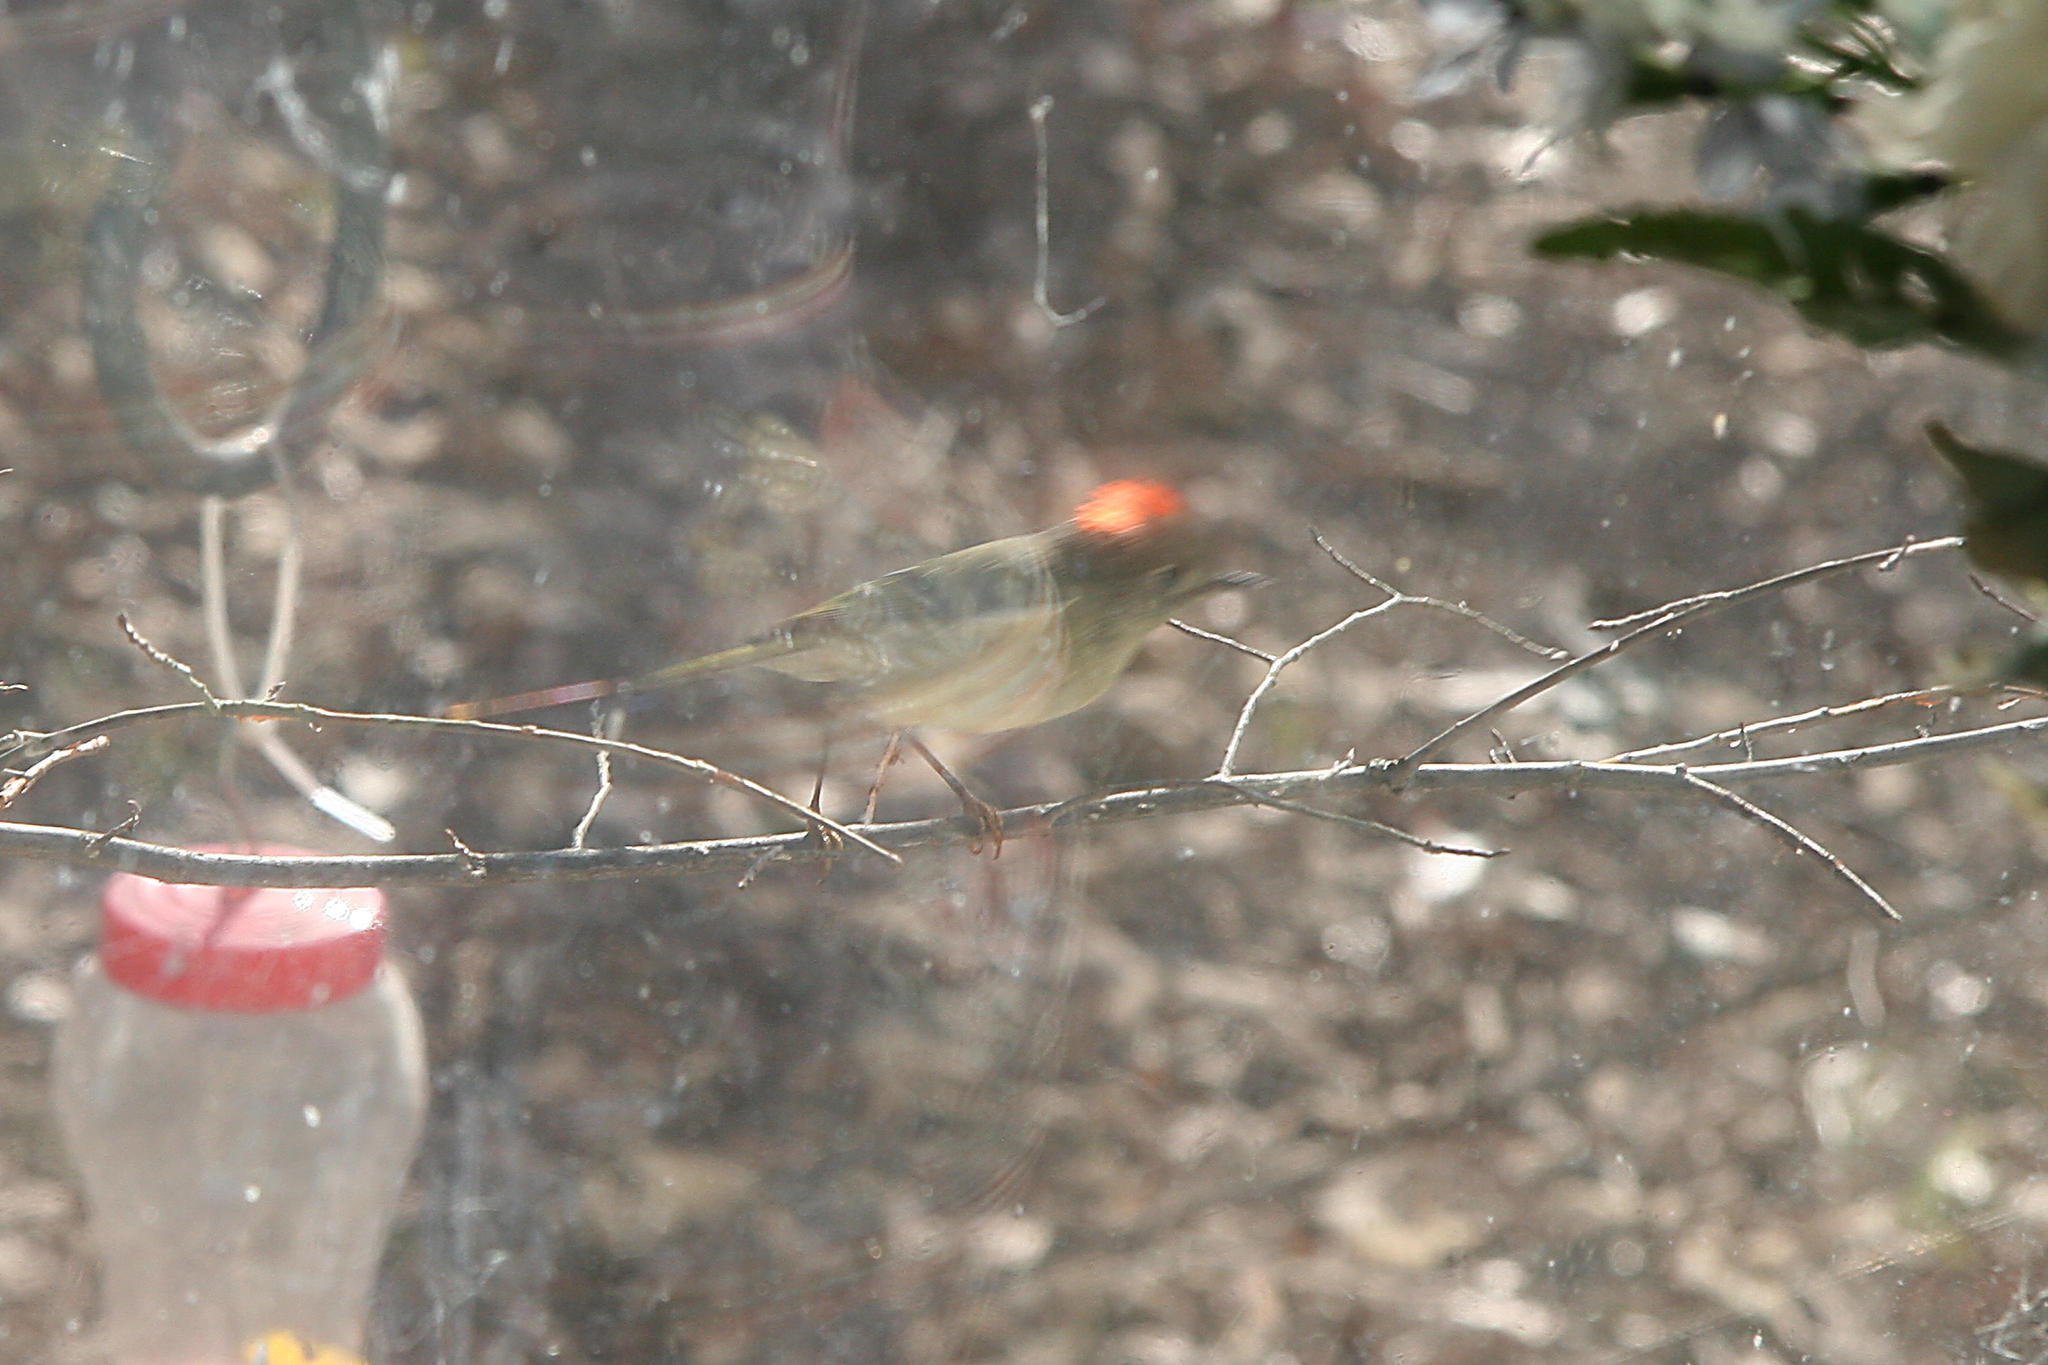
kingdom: Animalia
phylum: Chordata
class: Aves
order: Passeriformes
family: Regulidae
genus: Regulus
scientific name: Regulus calendula
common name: Ruby-crowned kinglet
